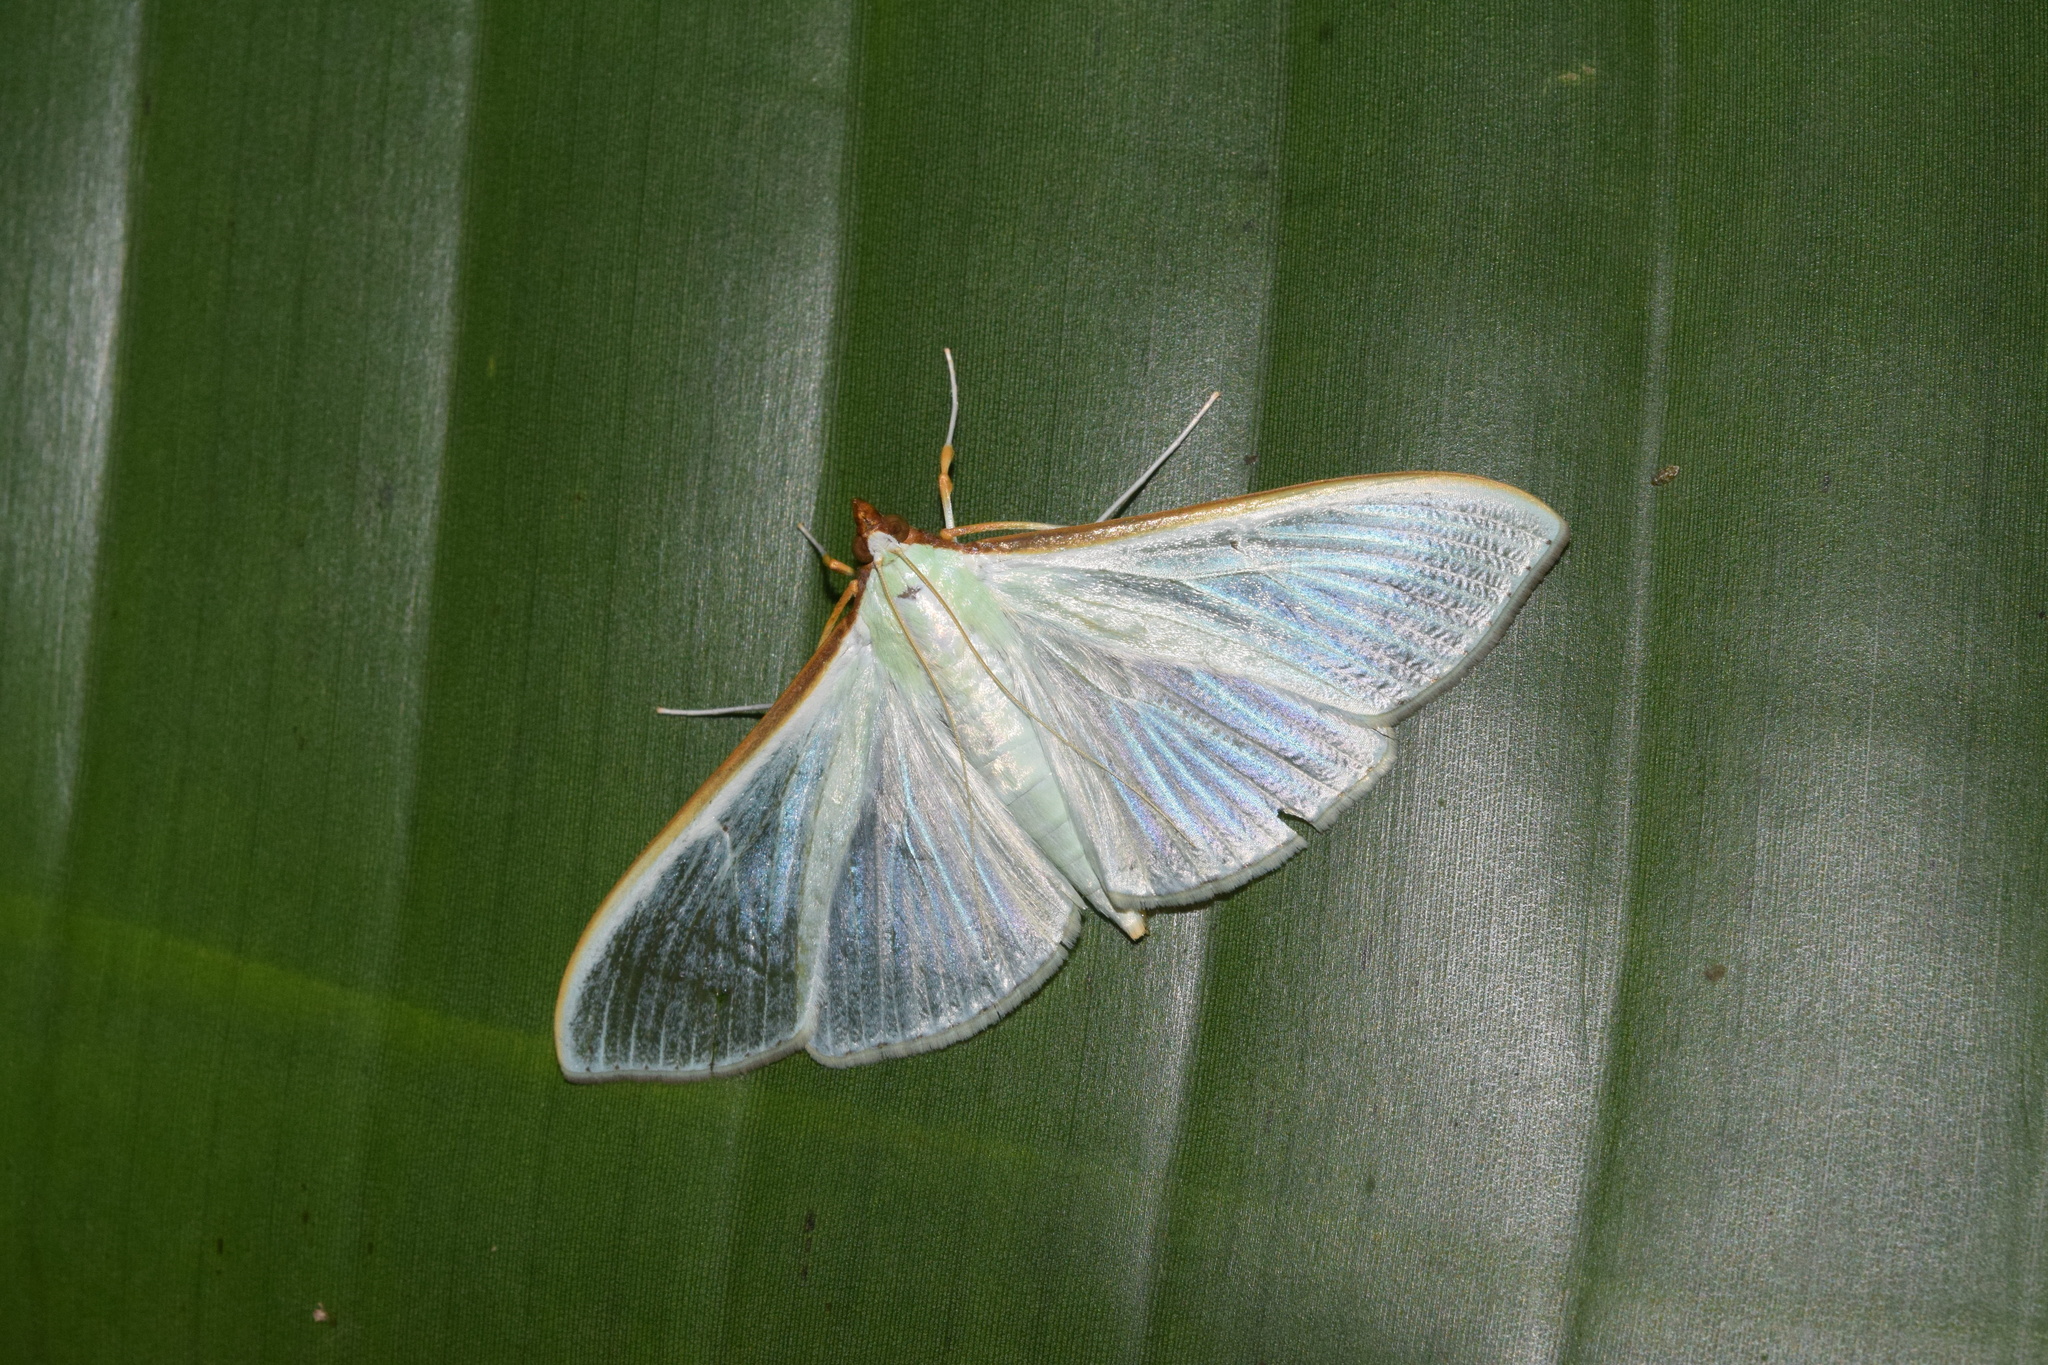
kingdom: Animalia
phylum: Arthropoda
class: Insecta
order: Lepidoptera
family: Crambidae
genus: Stemorrhages
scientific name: Stemorrhages sericea
